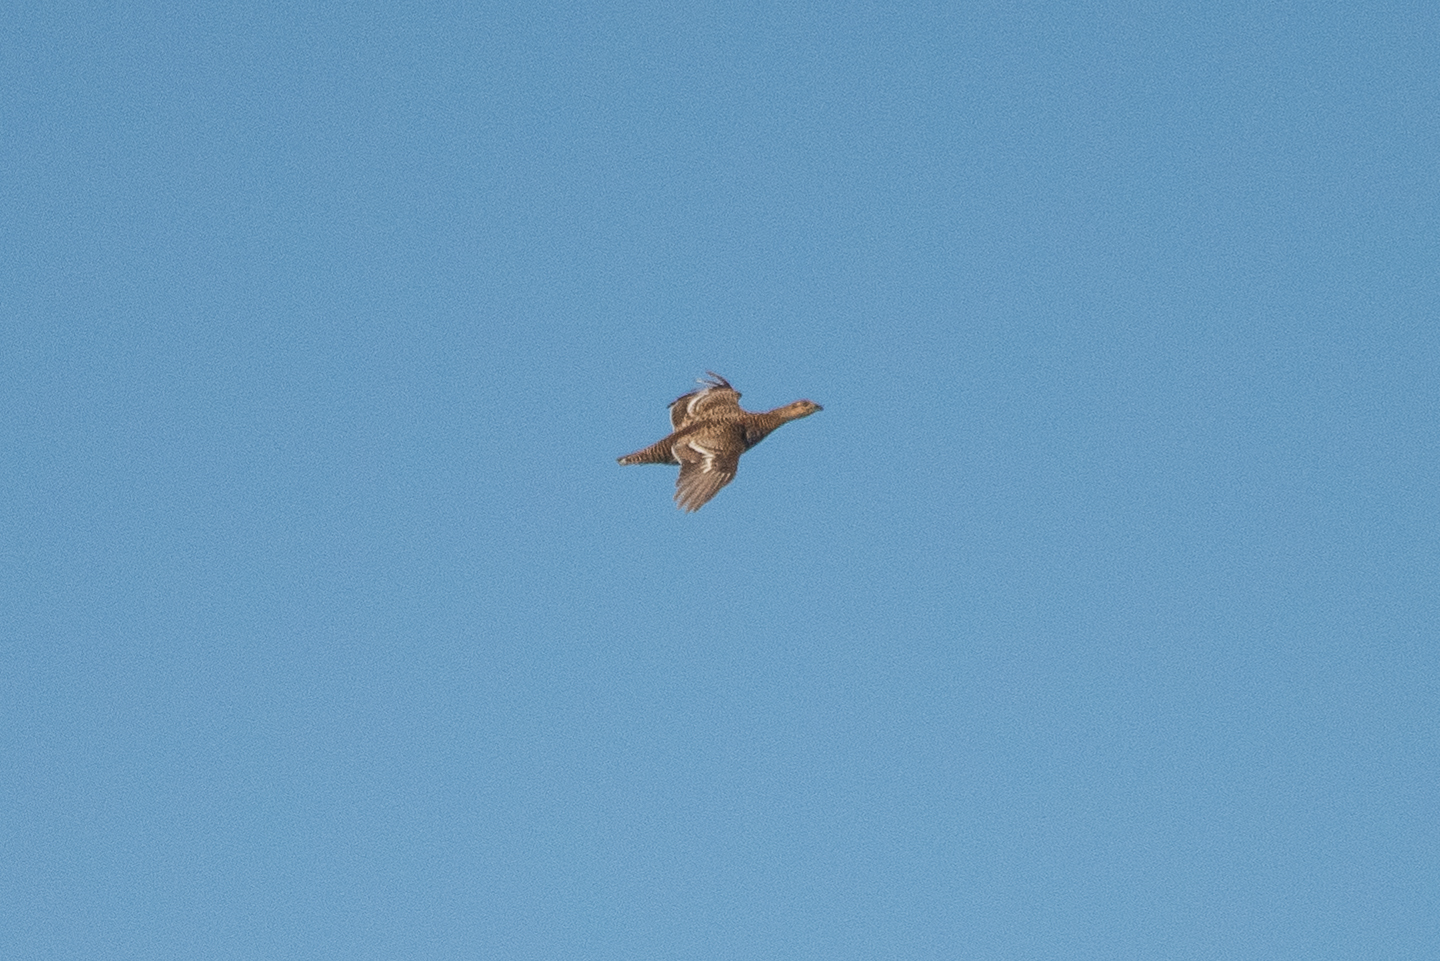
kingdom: Animalia
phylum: Chordata
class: Aves
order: Galliformes
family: Phasianidae
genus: Tetrao
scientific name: Tetrao urogallus
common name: Western capercaillie
